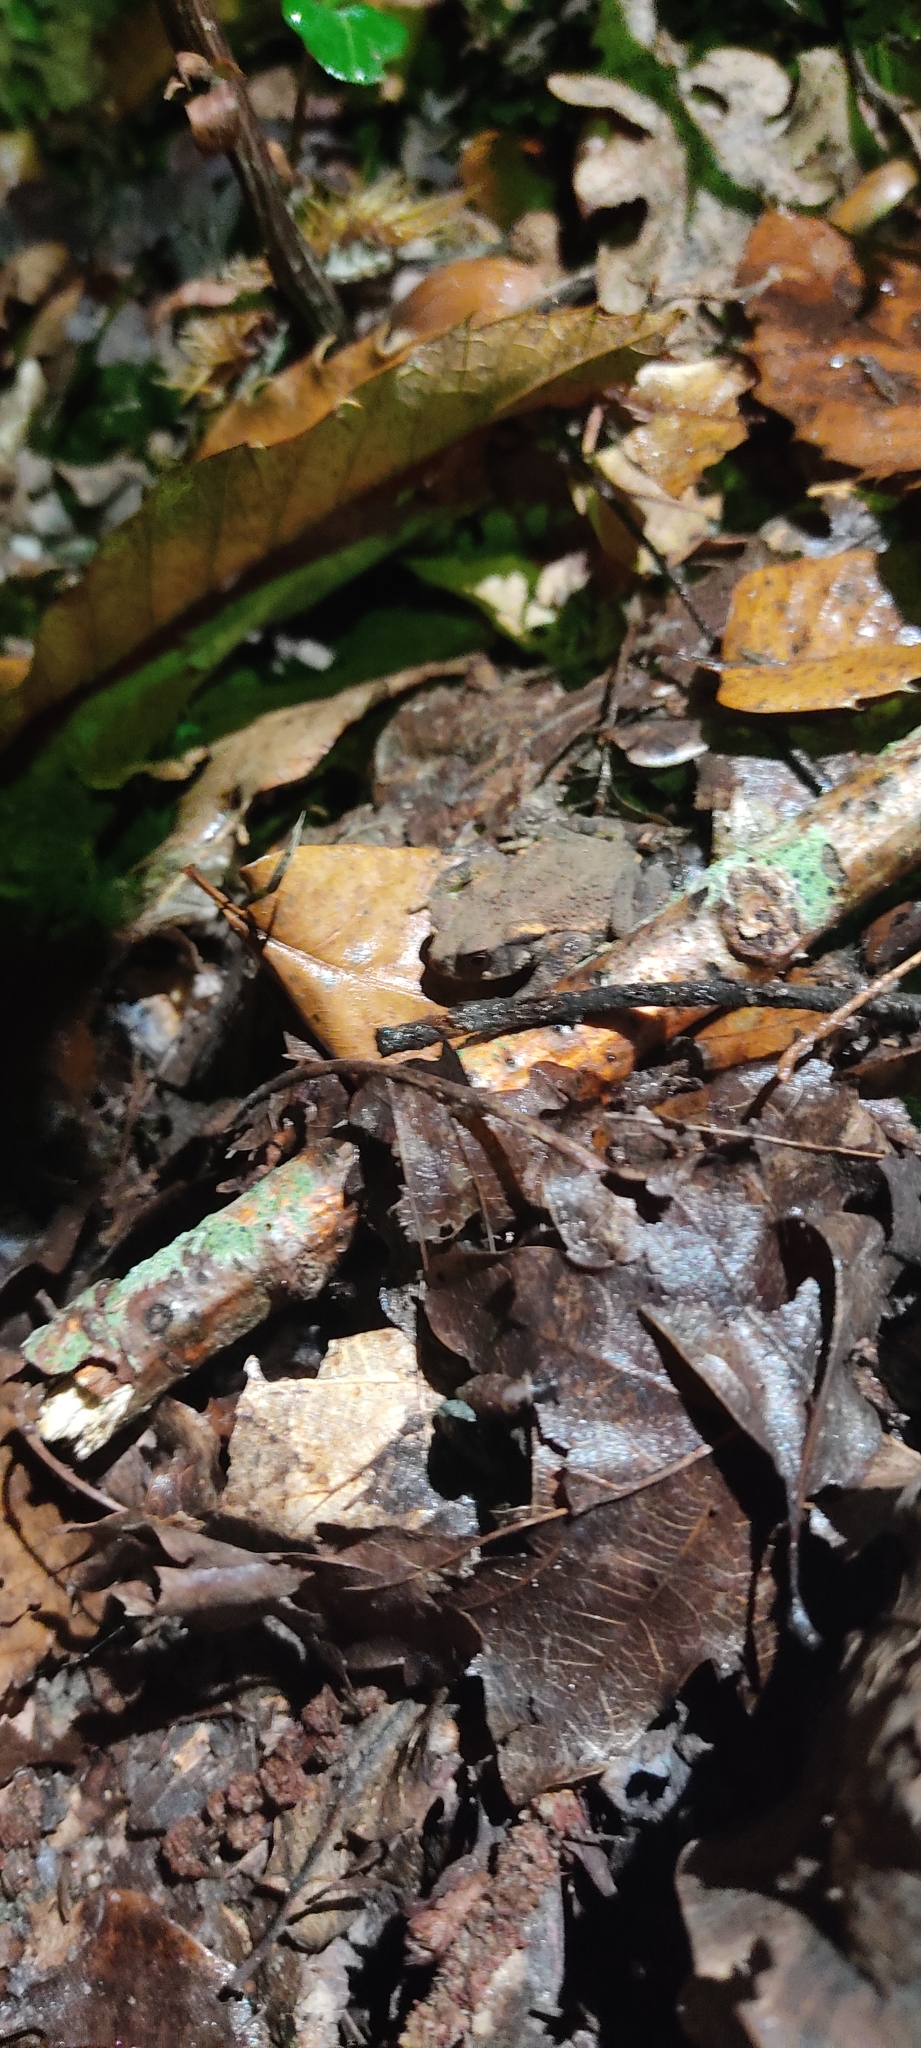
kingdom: Animalia
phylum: Chordata
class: Amphibia
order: Anura
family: Bufonidae
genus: Bufo
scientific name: Bufo spinosus
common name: Western common toad
